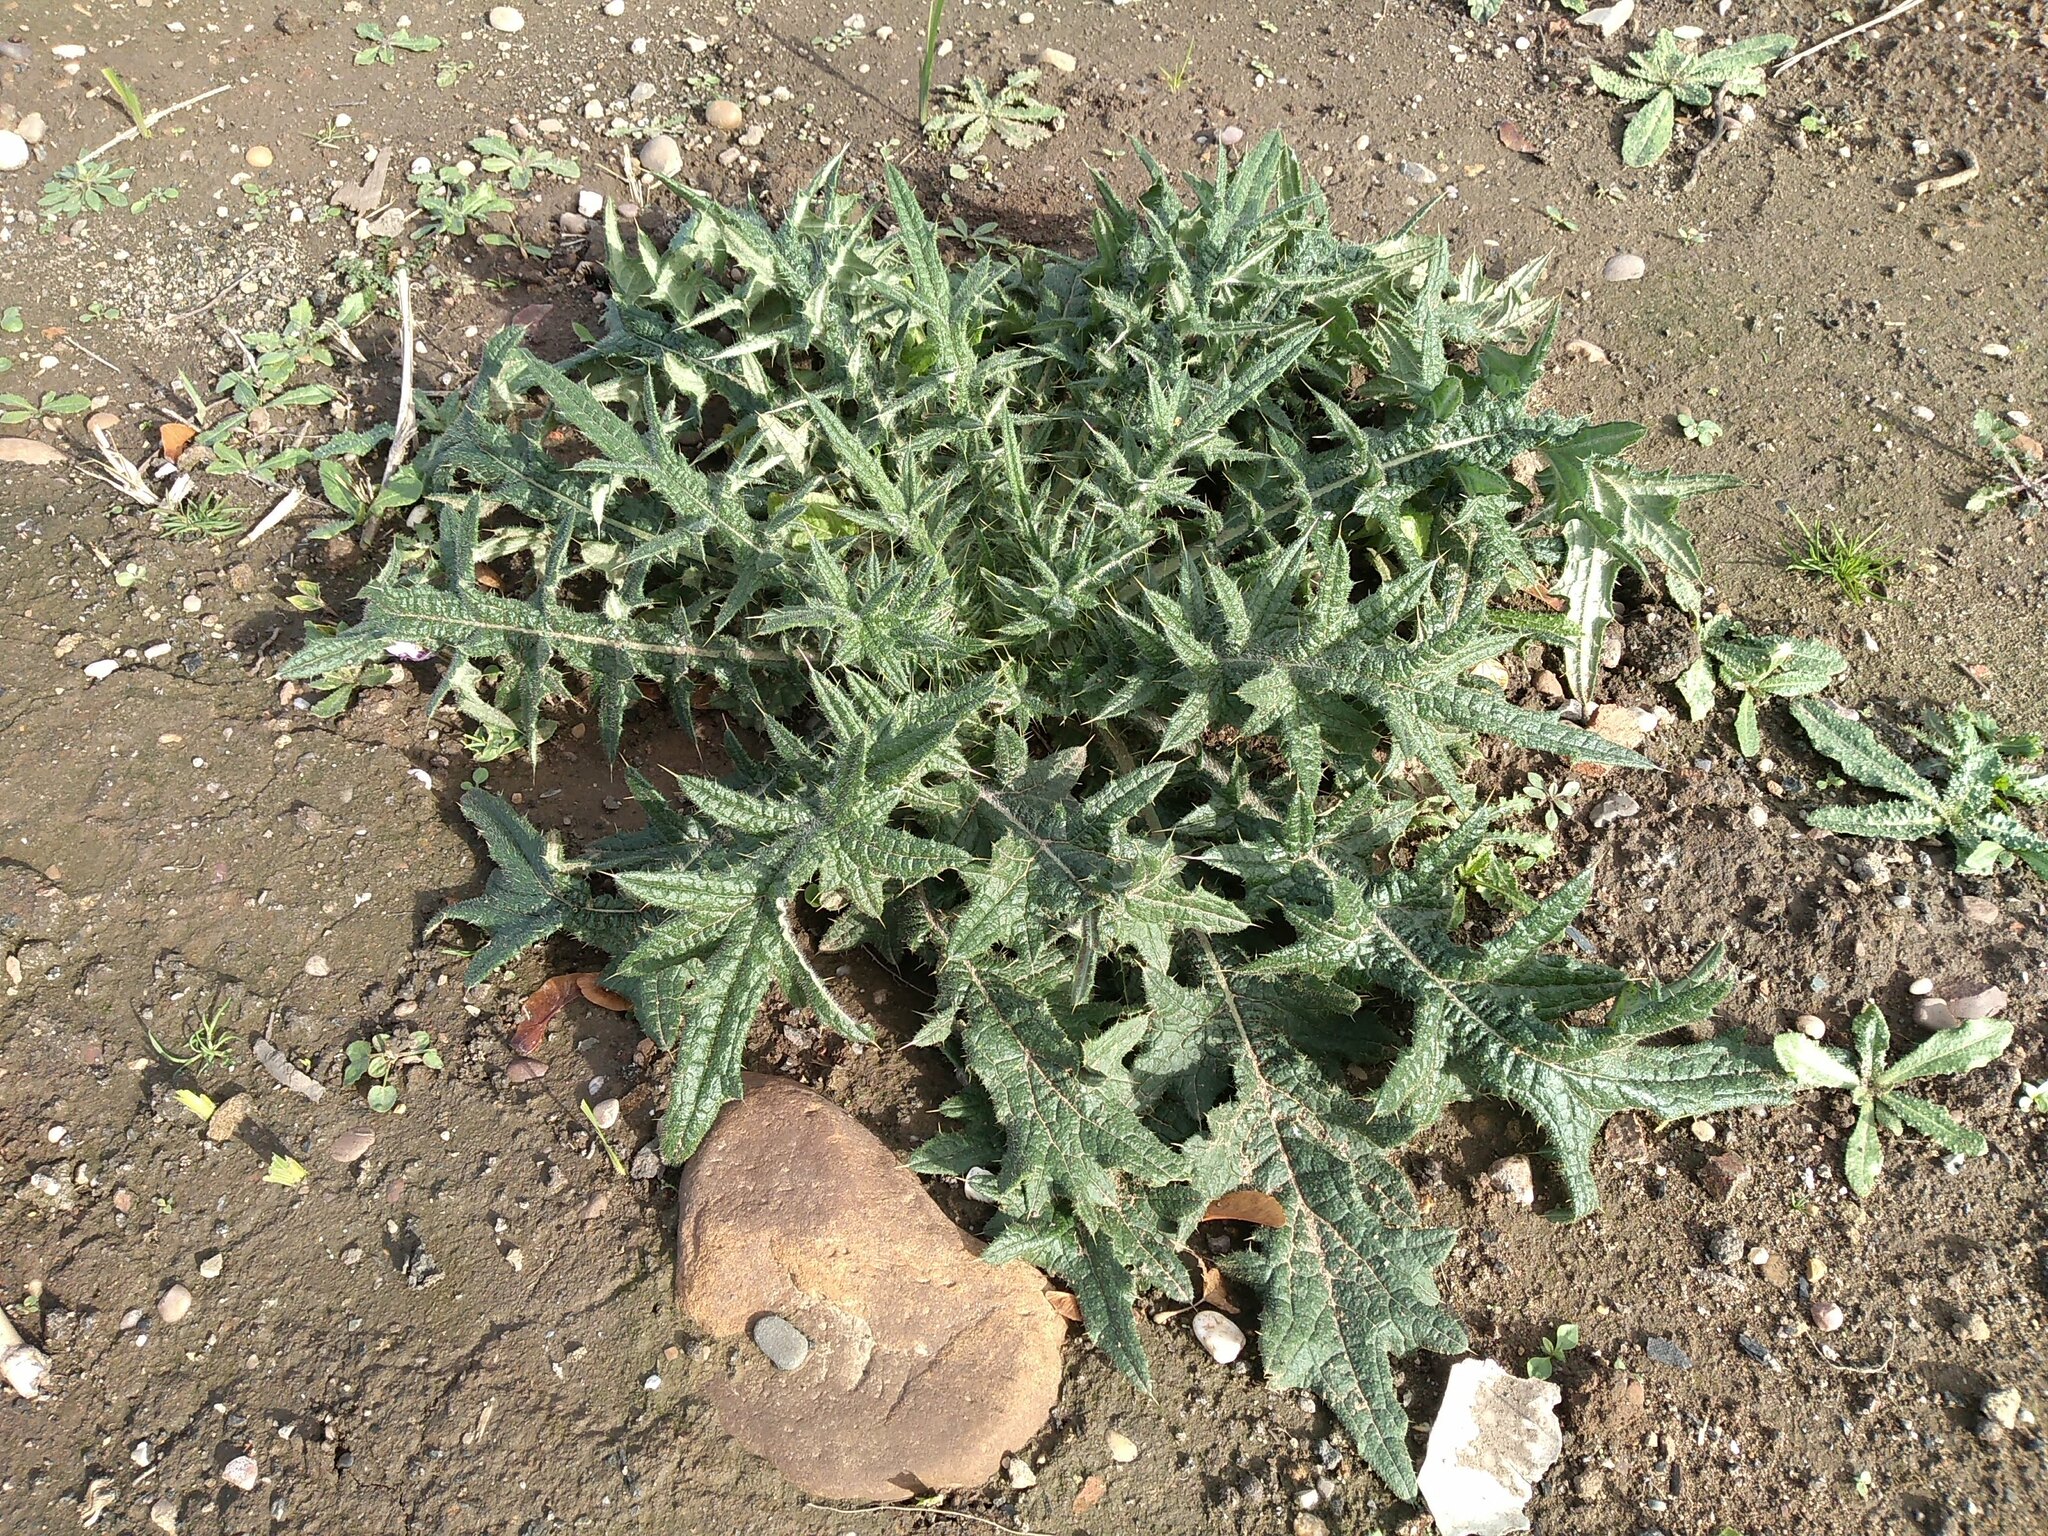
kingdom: Plantae
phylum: Tracheophyta
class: Magnoliopsida
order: Asterales
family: Asteraceae
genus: Cirsium
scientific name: Cirsium vulgare
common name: Bull thistle
